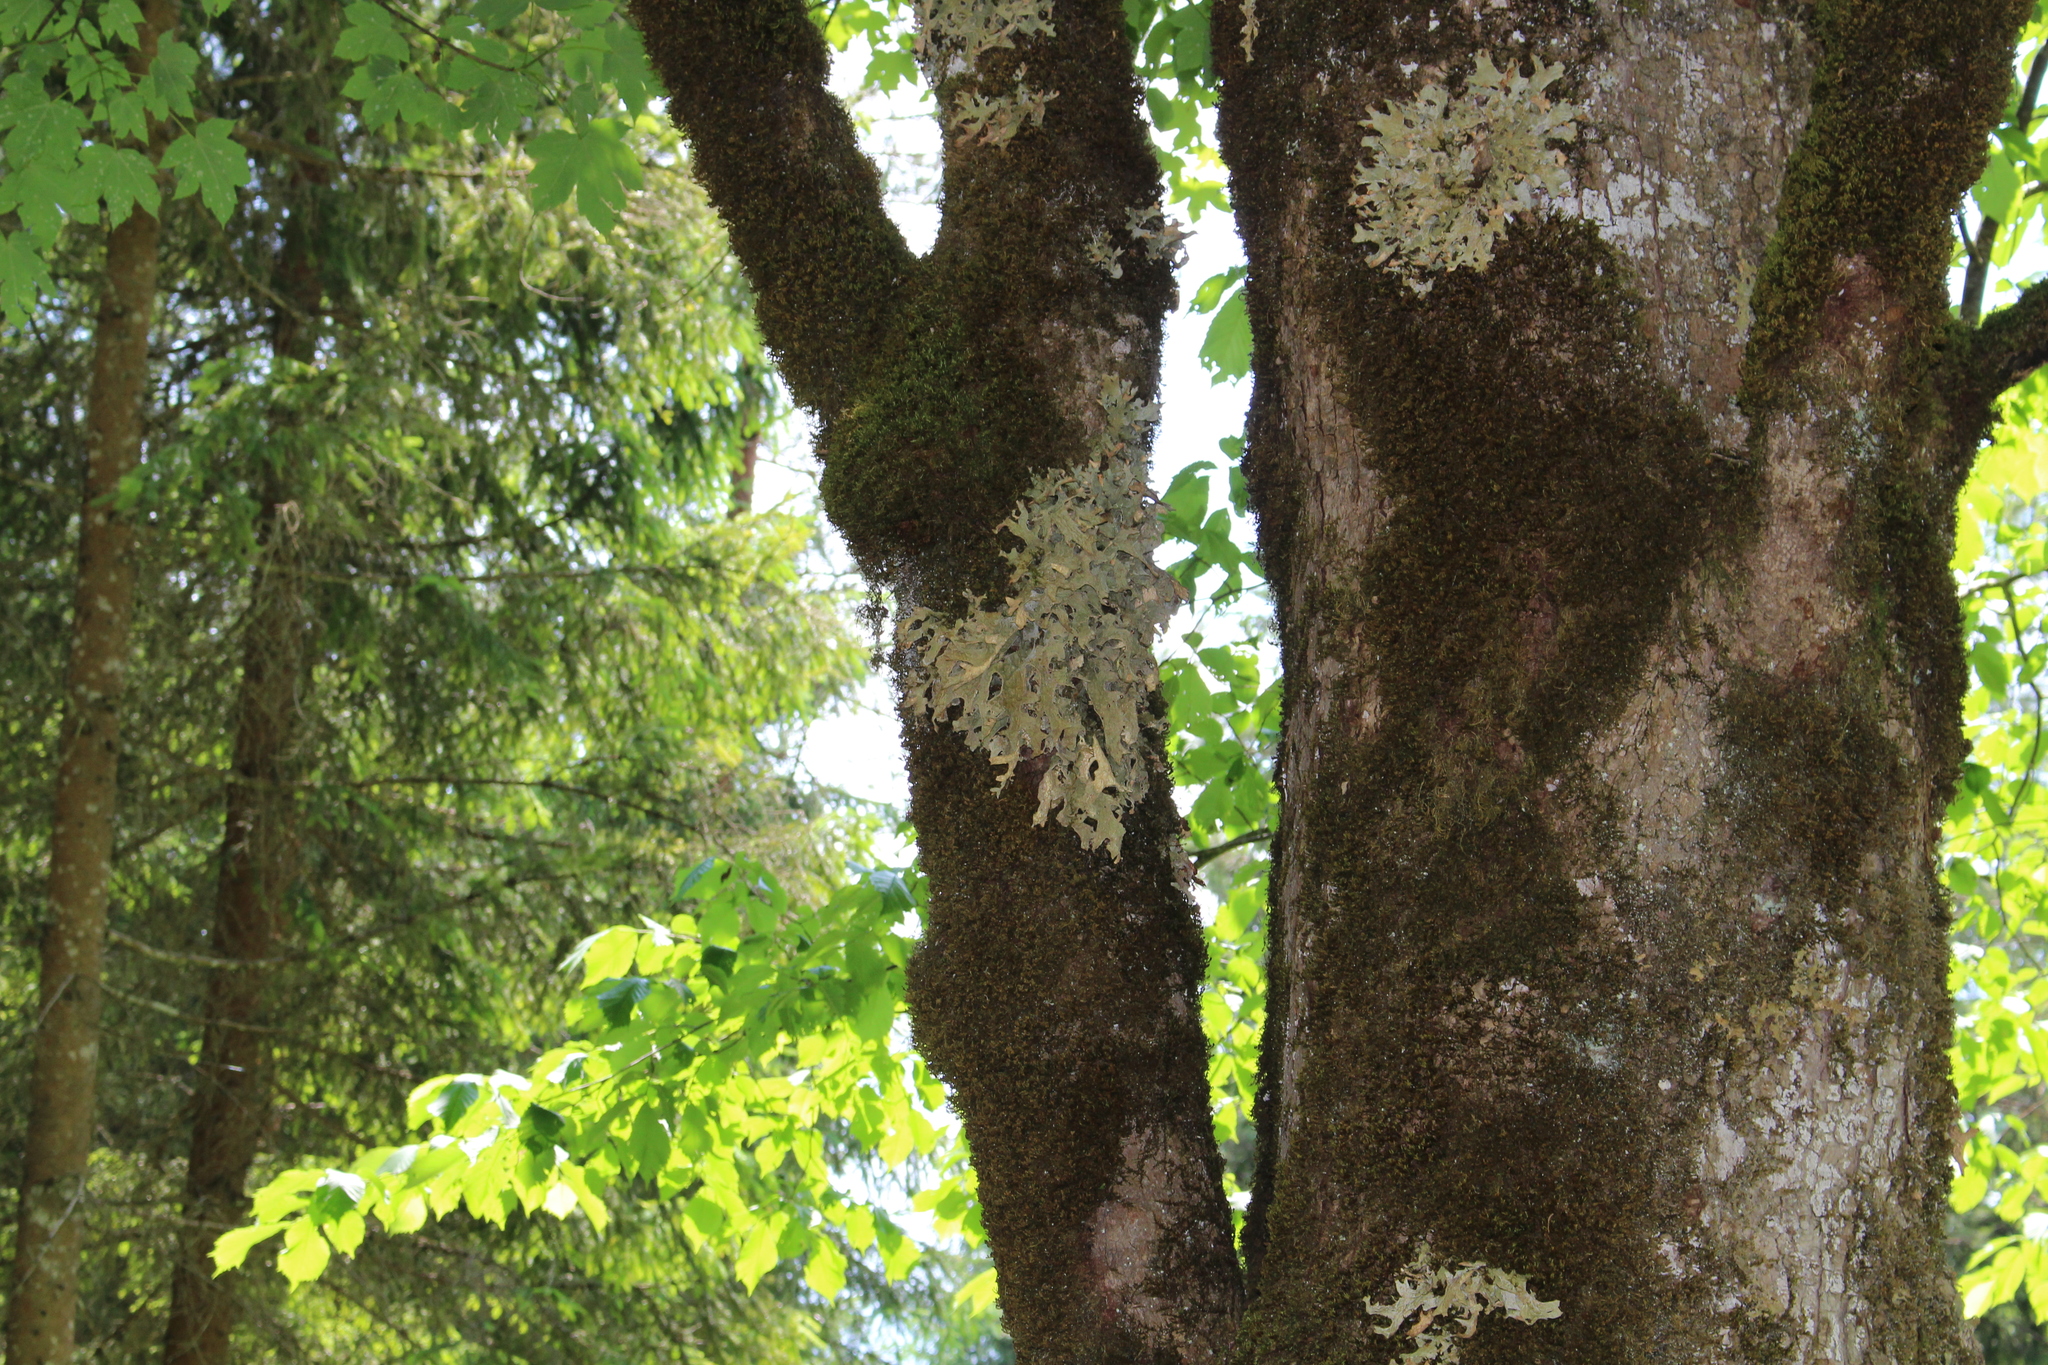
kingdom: Fungi
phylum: Ascomycota
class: Lecanoromycetes
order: Peltigerales
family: Lobariaceae
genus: Lobaria
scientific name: Lobaria pulmonaria
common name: Lungwort
